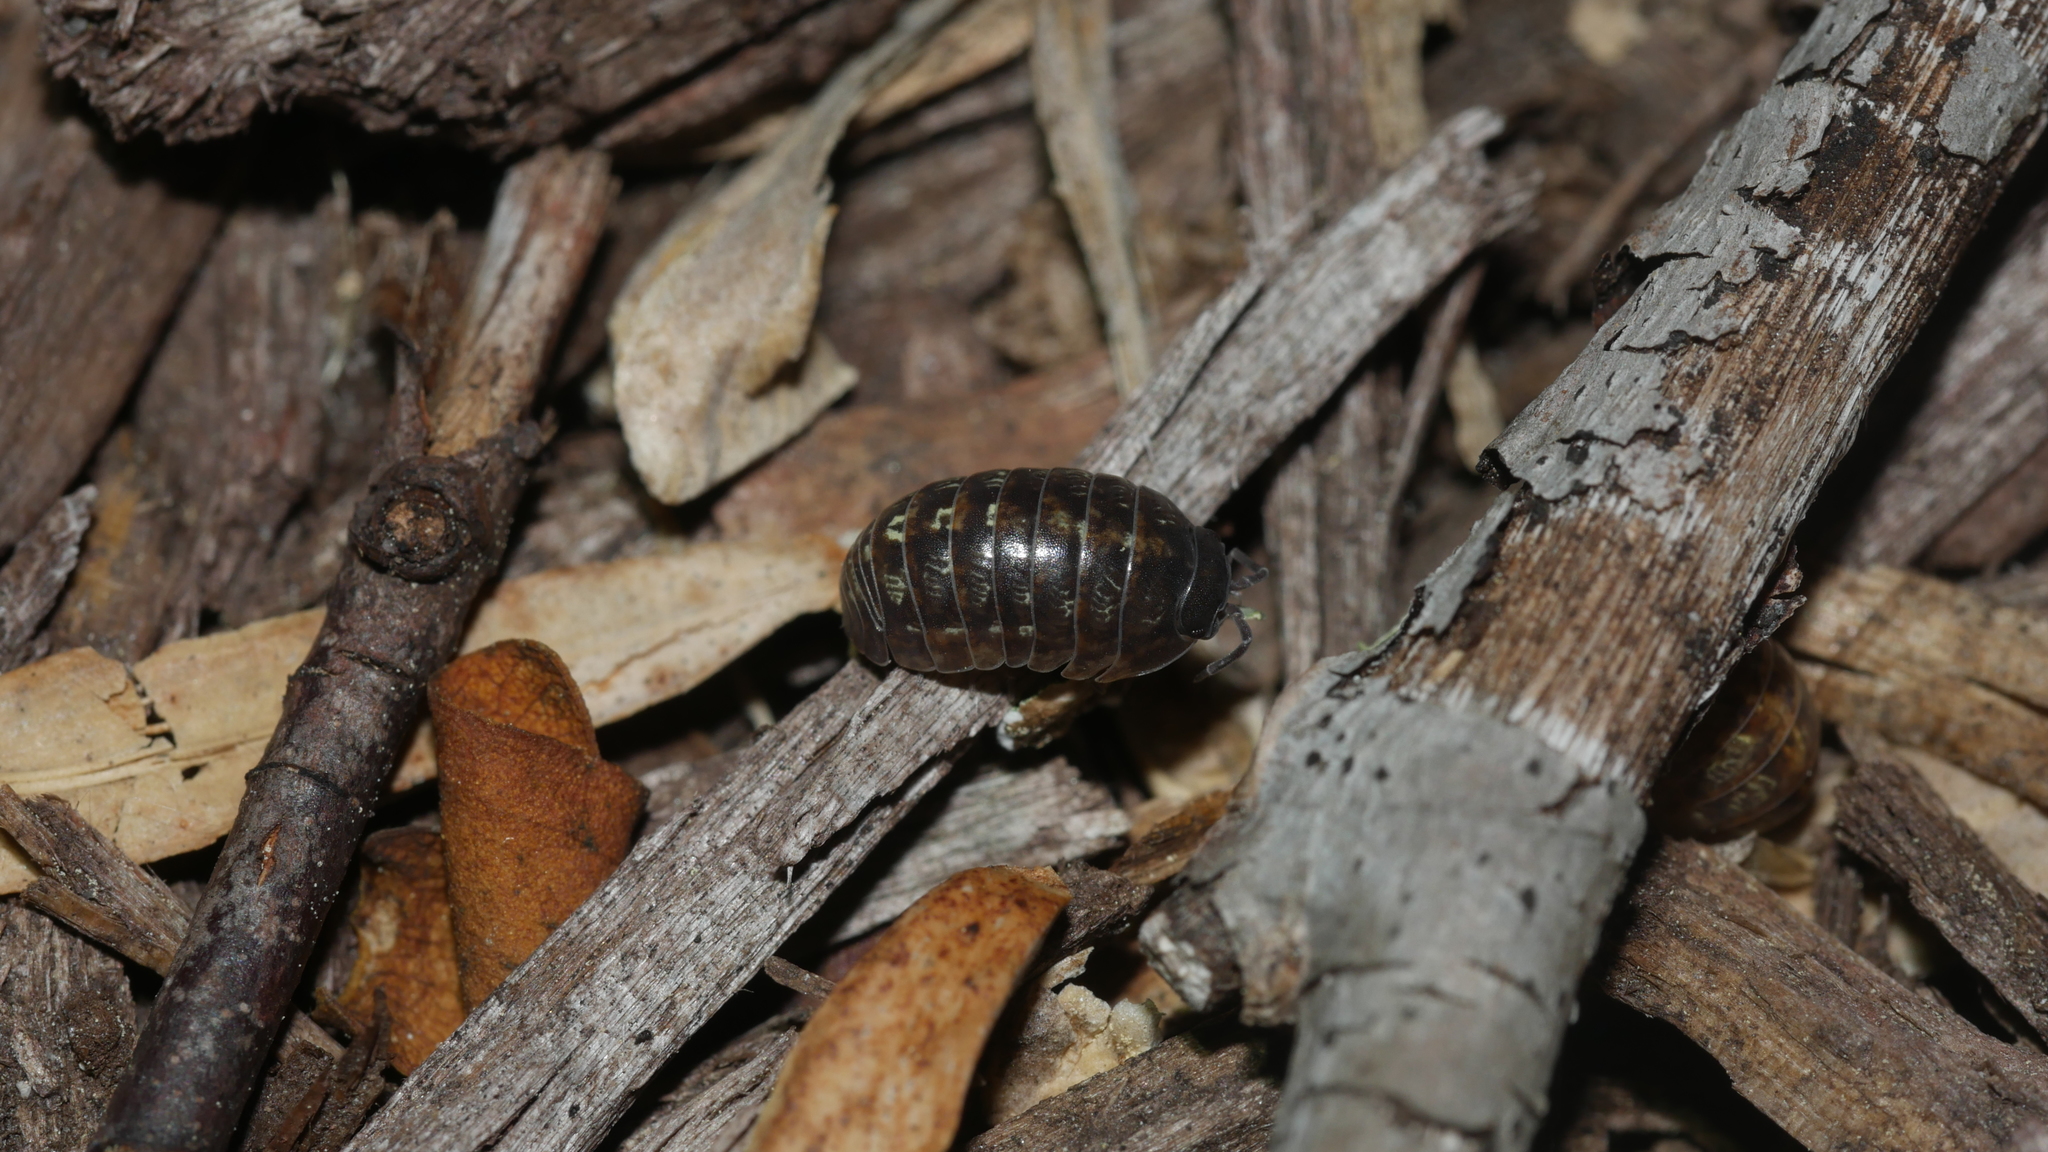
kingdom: Animalia
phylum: Arthropoda
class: Malacostraca
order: Isopoda
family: Armadillidiidae
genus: Armadillidium
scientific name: Armadillidium vulgare
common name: Common pill woodlouse
